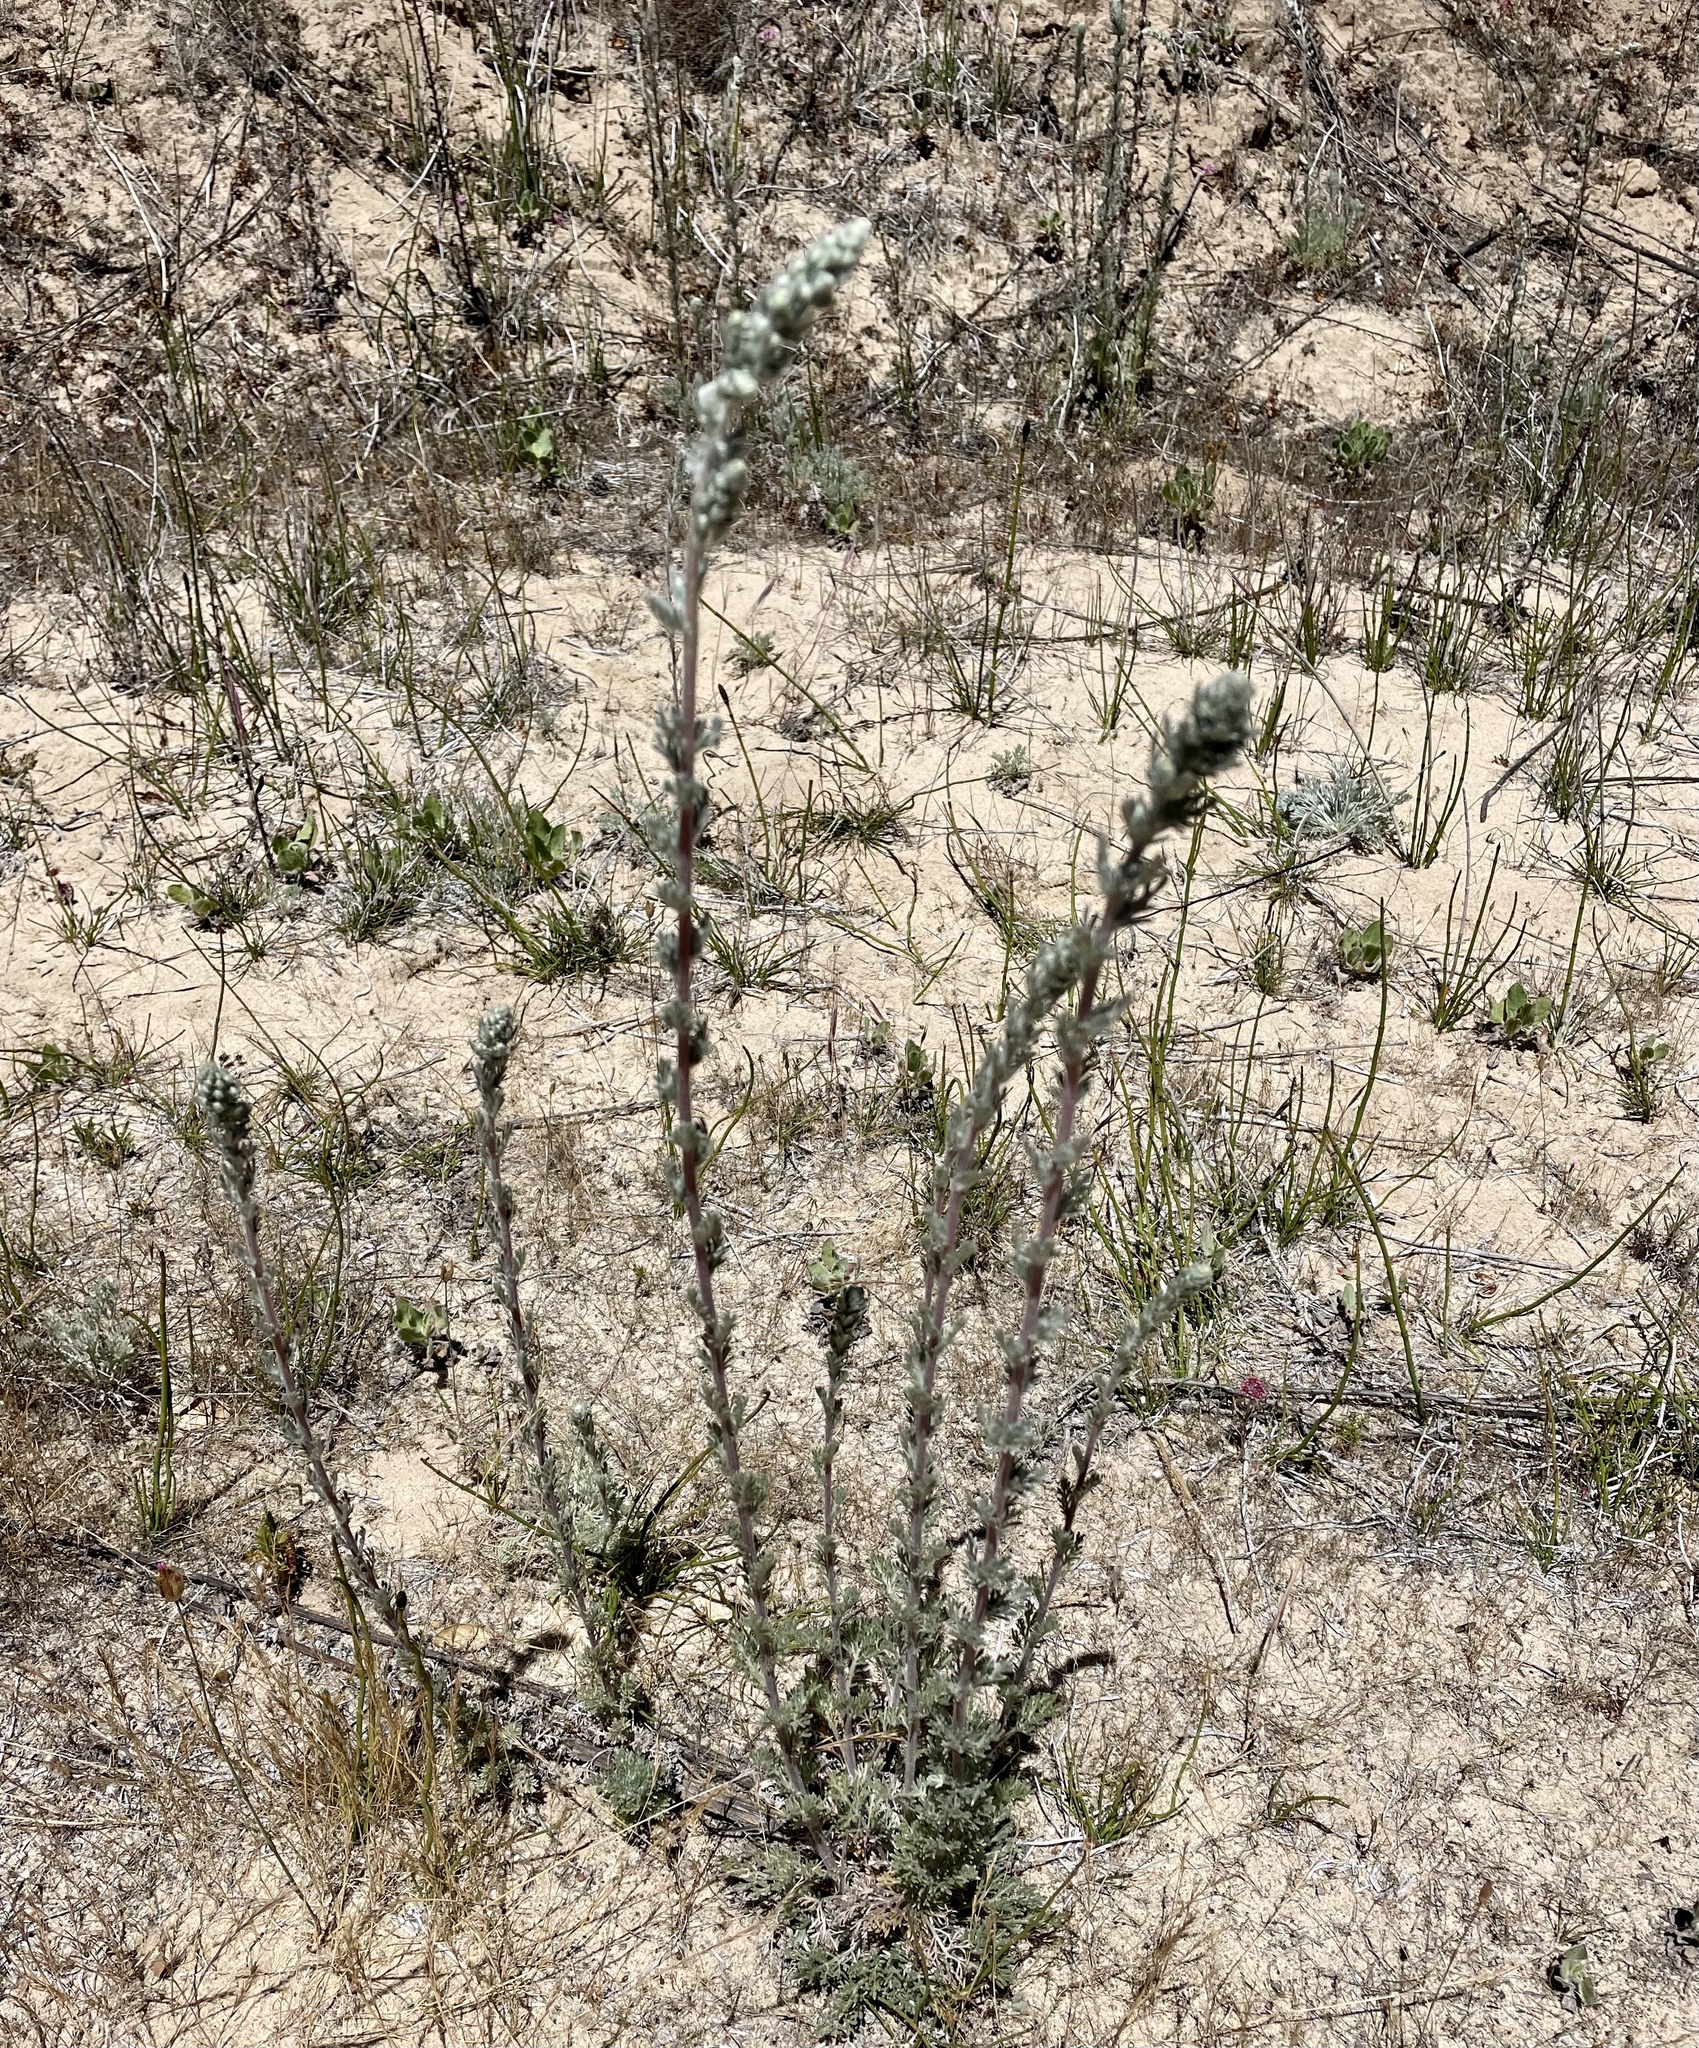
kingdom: Plantae
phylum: Tracheophyta
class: Magnoliopsida
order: Asterales
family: Asteraceae
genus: Artemisia
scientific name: Artemisia pycnocephala
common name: Coastal sagewort
